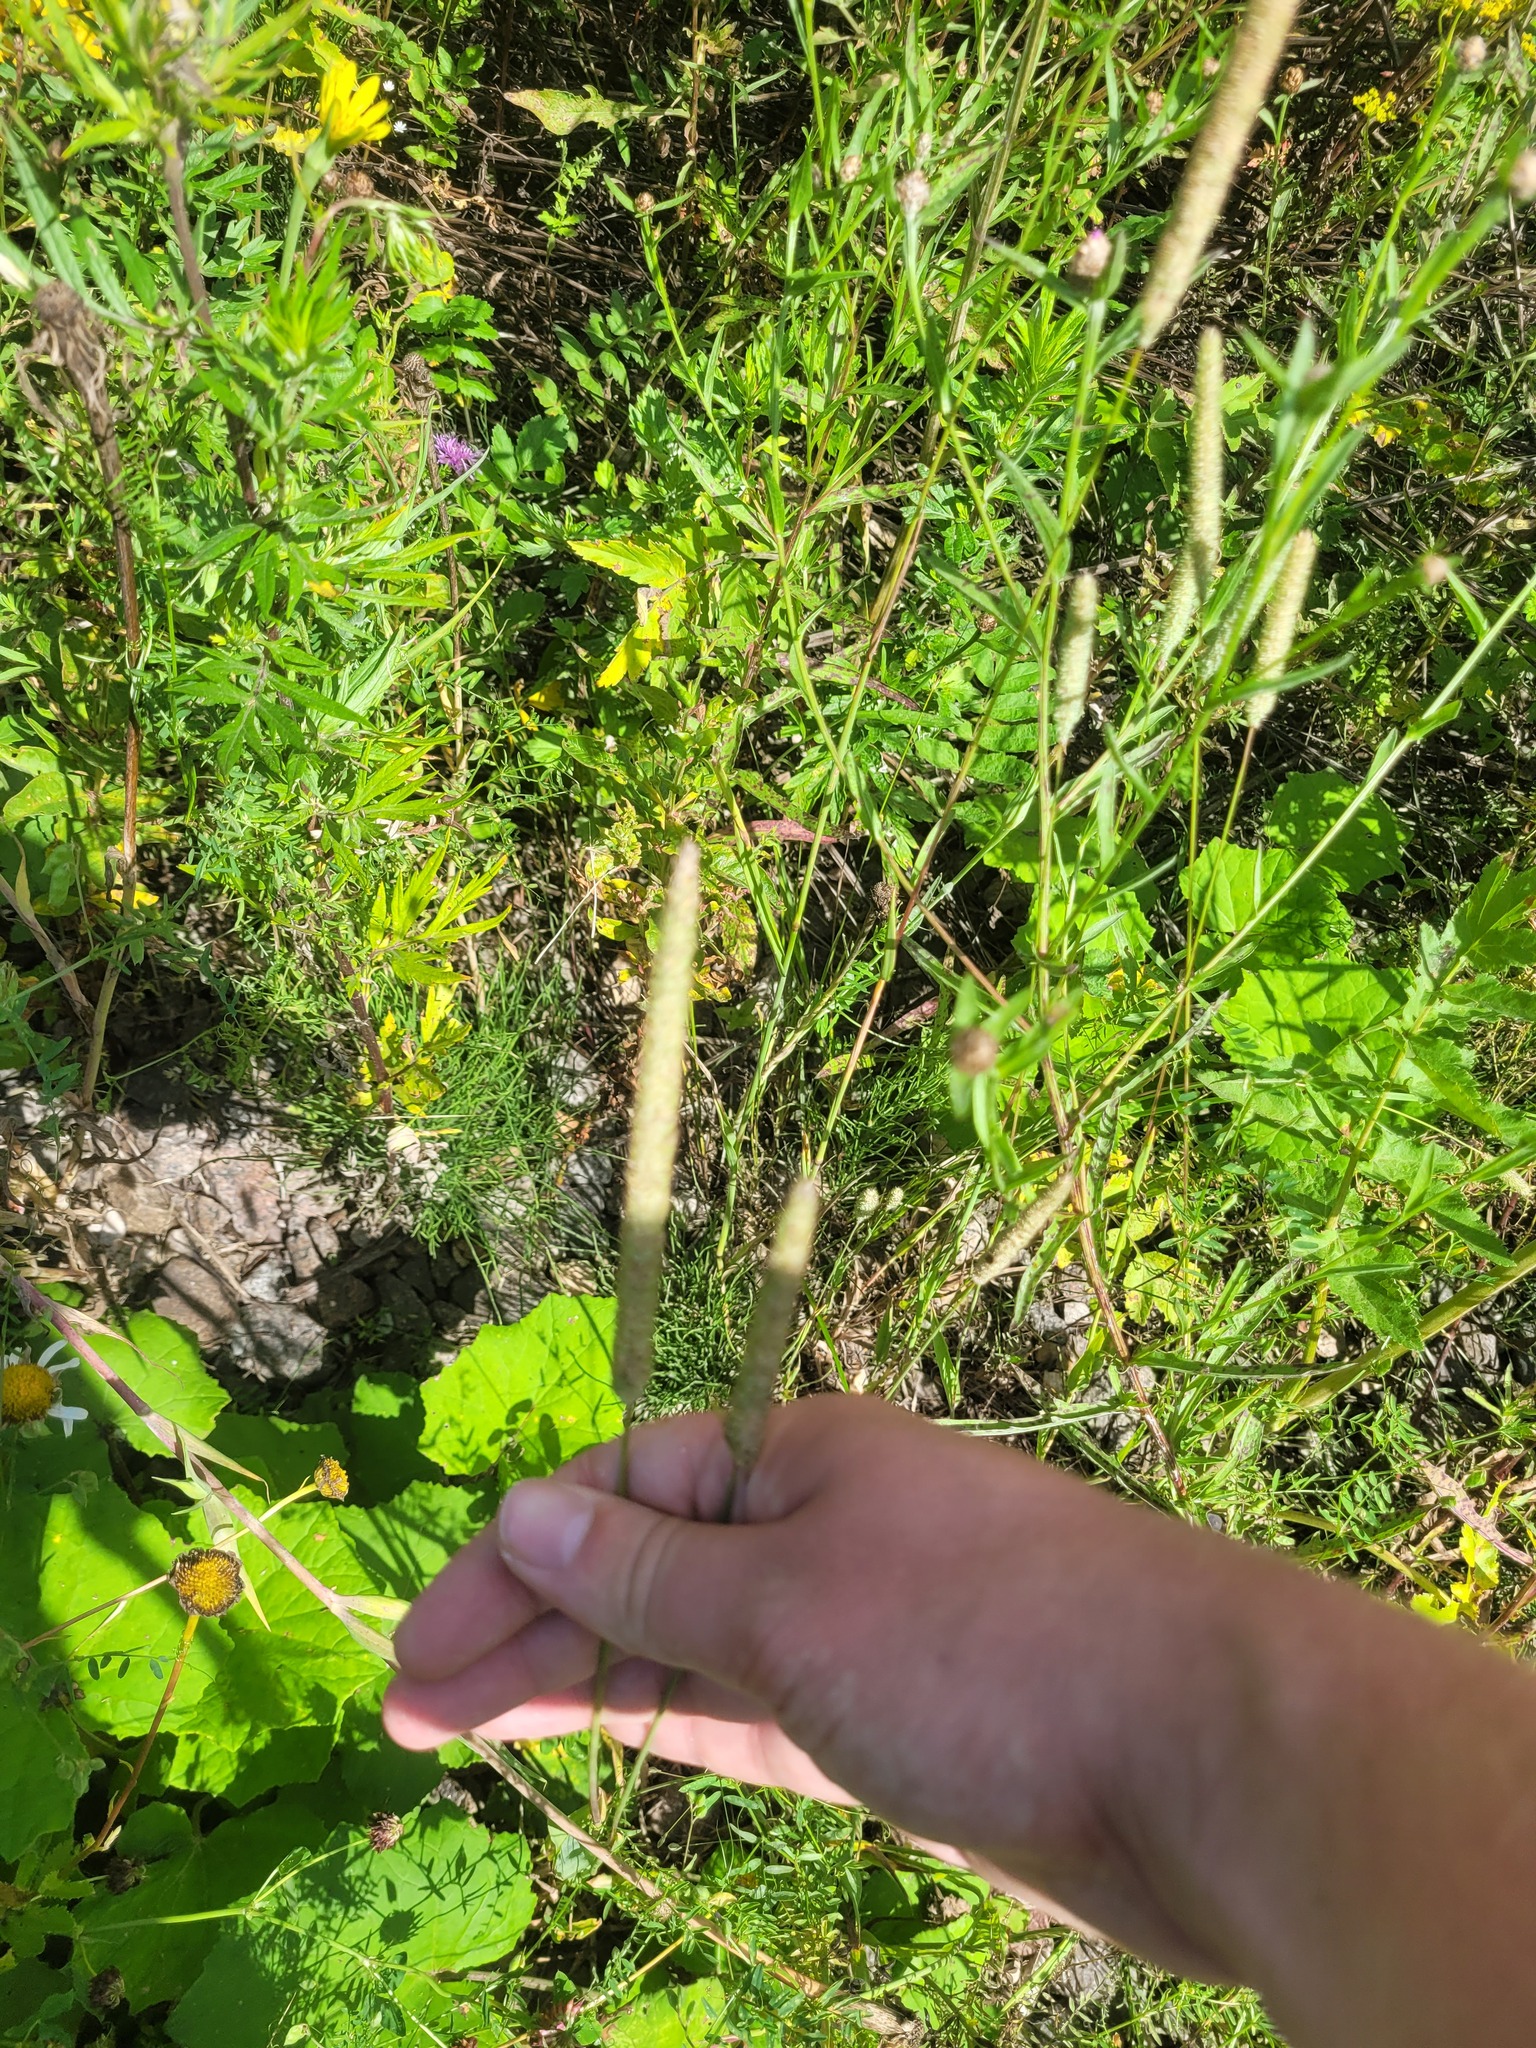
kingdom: Plantae
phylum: Tracheophyta
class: Liliopsida
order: Poales
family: Poaceae
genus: Phleum
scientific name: Phleum pratense
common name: Timothy grass
